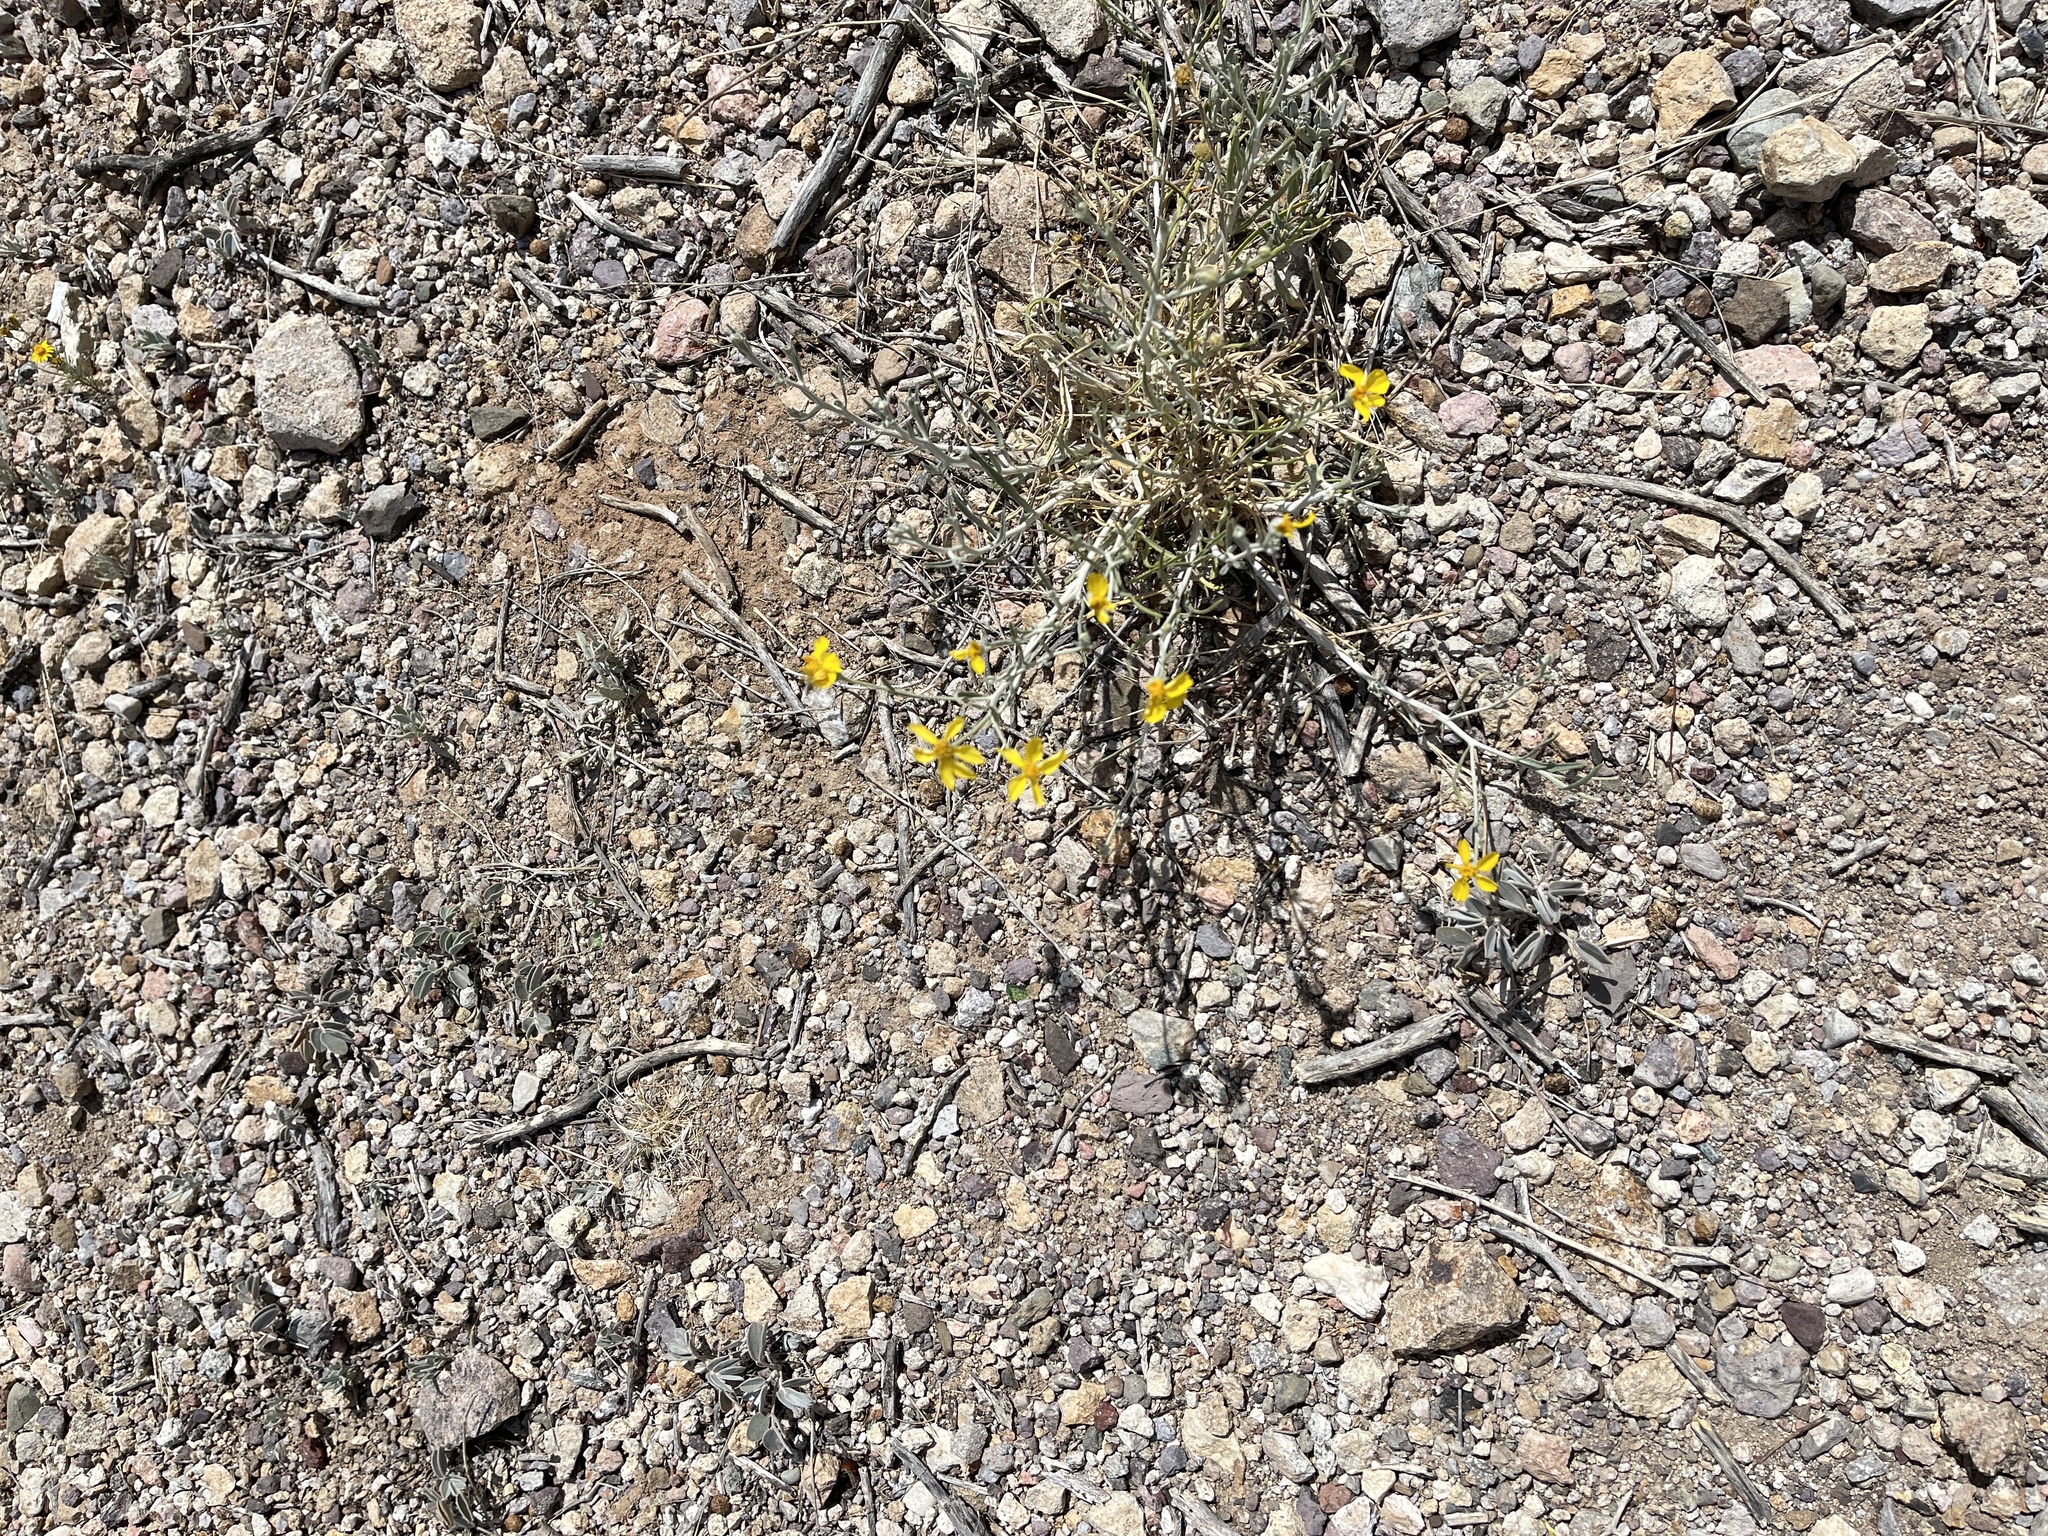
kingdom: Plantae
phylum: Tracheophyta
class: Magnoliopsida
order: Asterales
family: Asteraceae
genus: Psilostrophe
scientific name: Psilostrophe cooperi
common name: White-stem paper-flower
